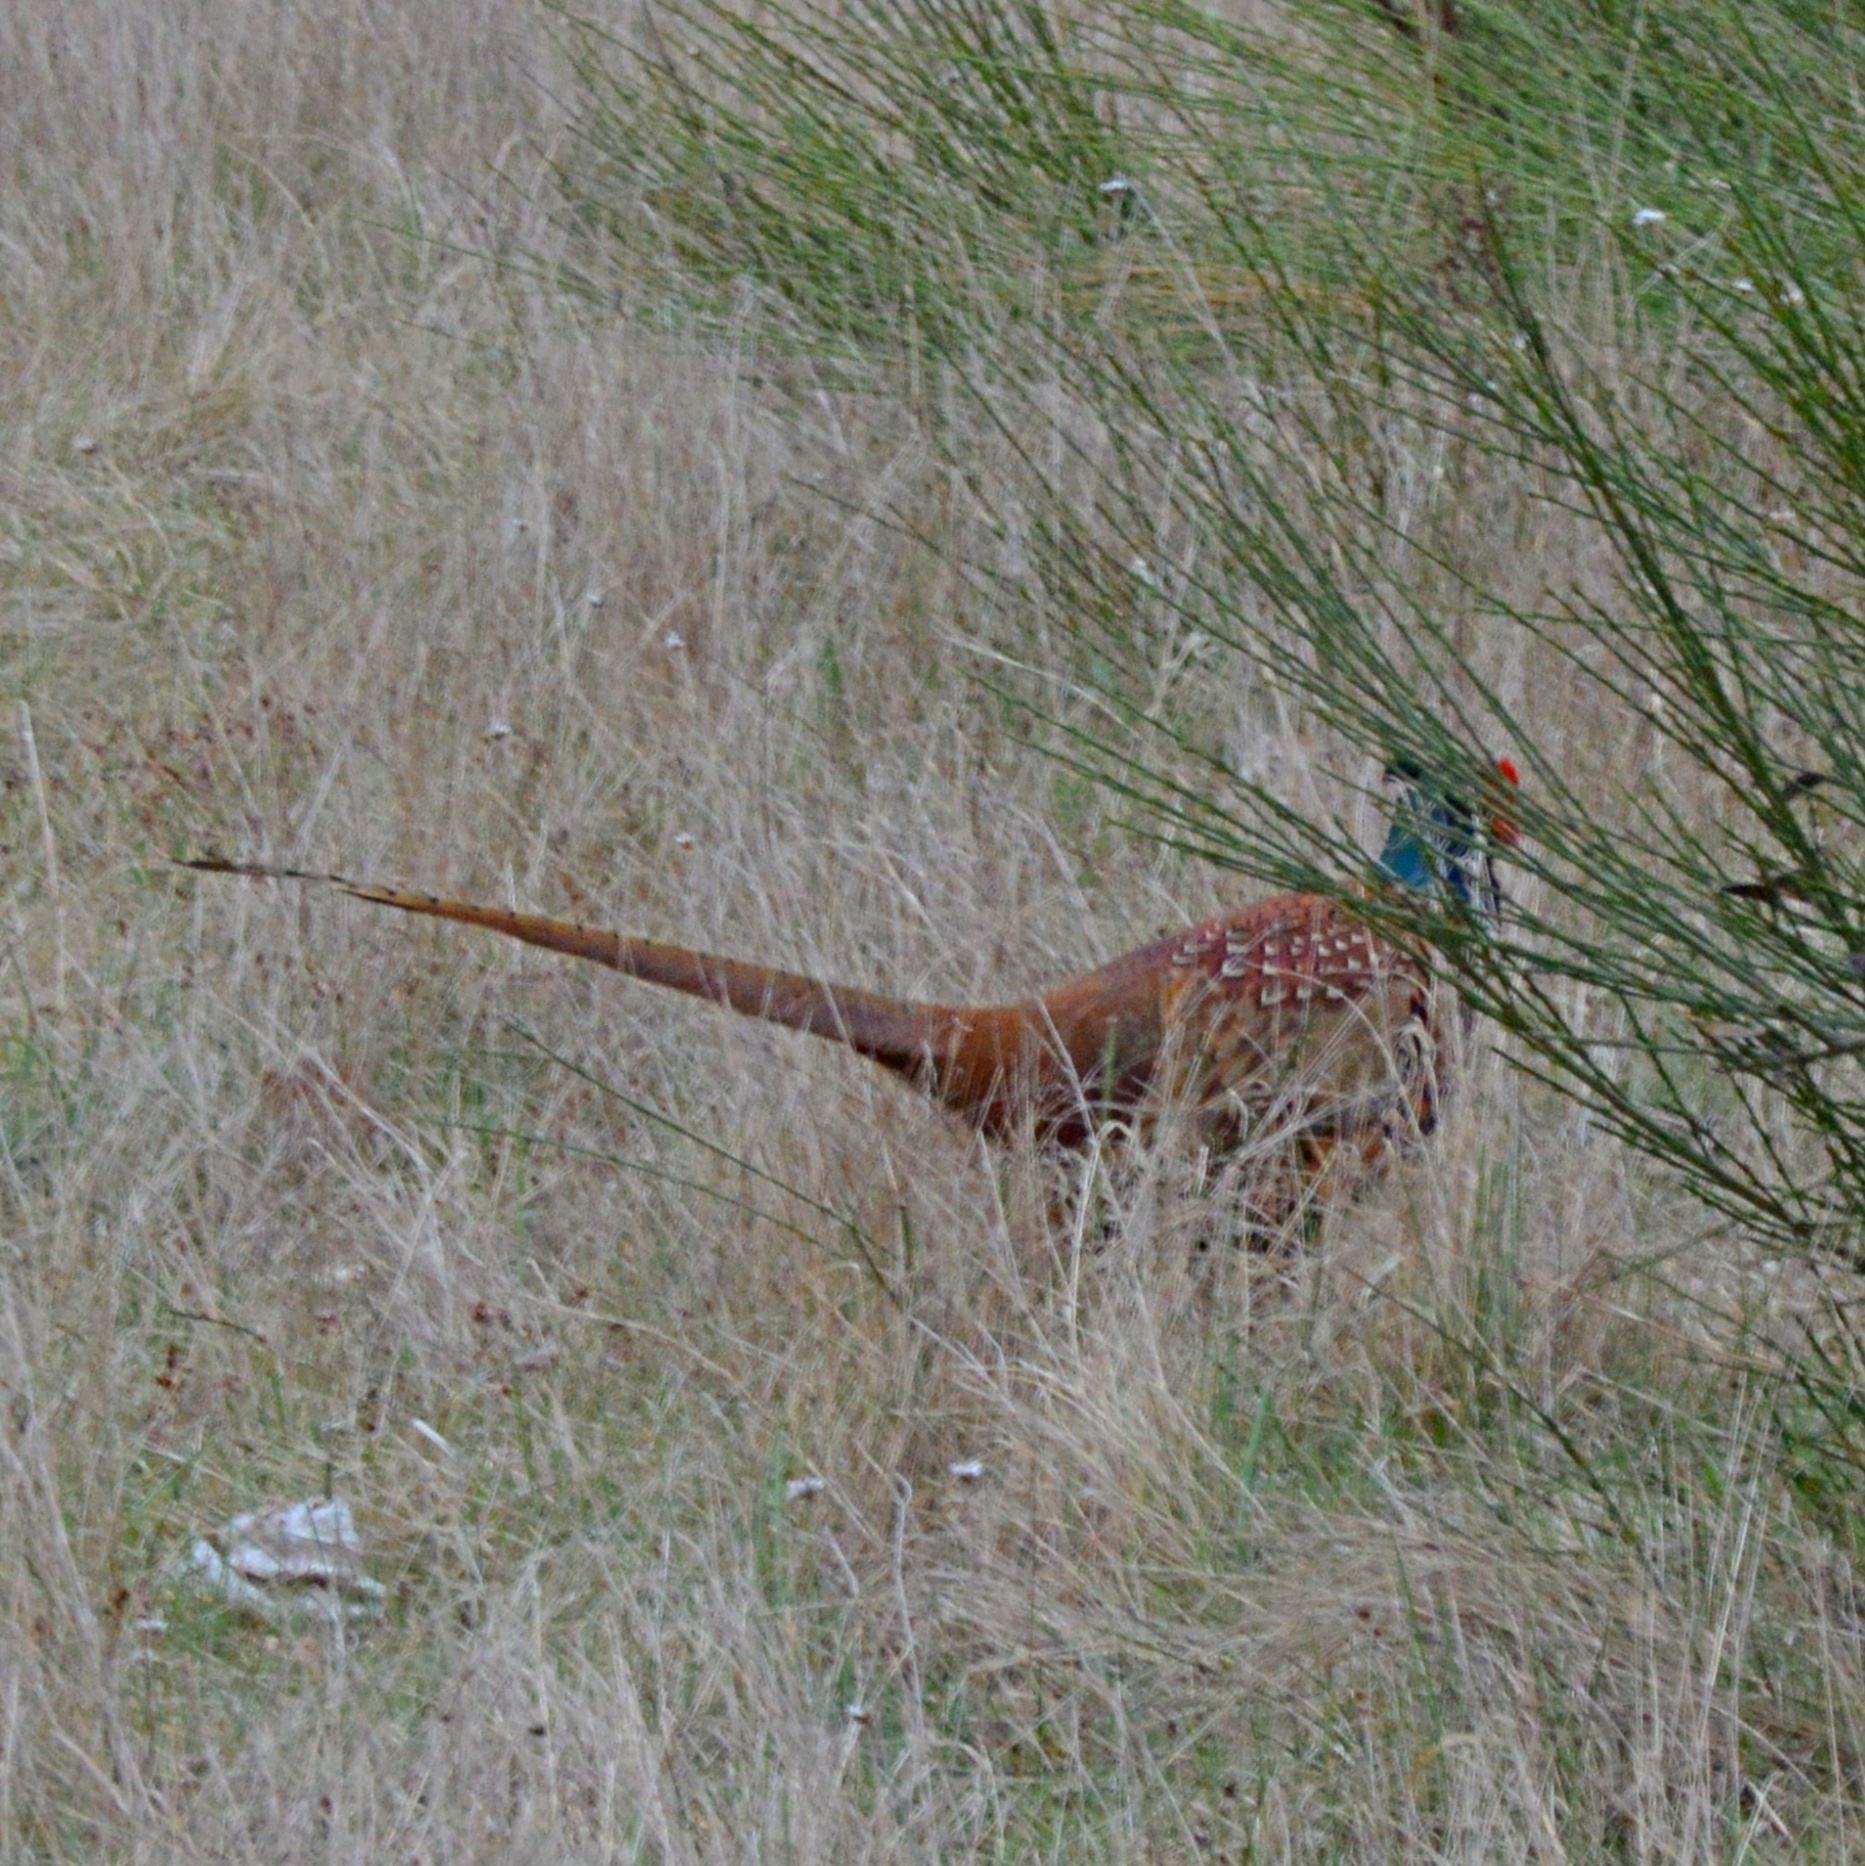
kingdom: Animalia
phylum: Chordata
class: Aves
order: Galliformes
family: Phasianidae
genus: Phasianus
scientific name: Phasianus colchicus
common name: Common pheasant
